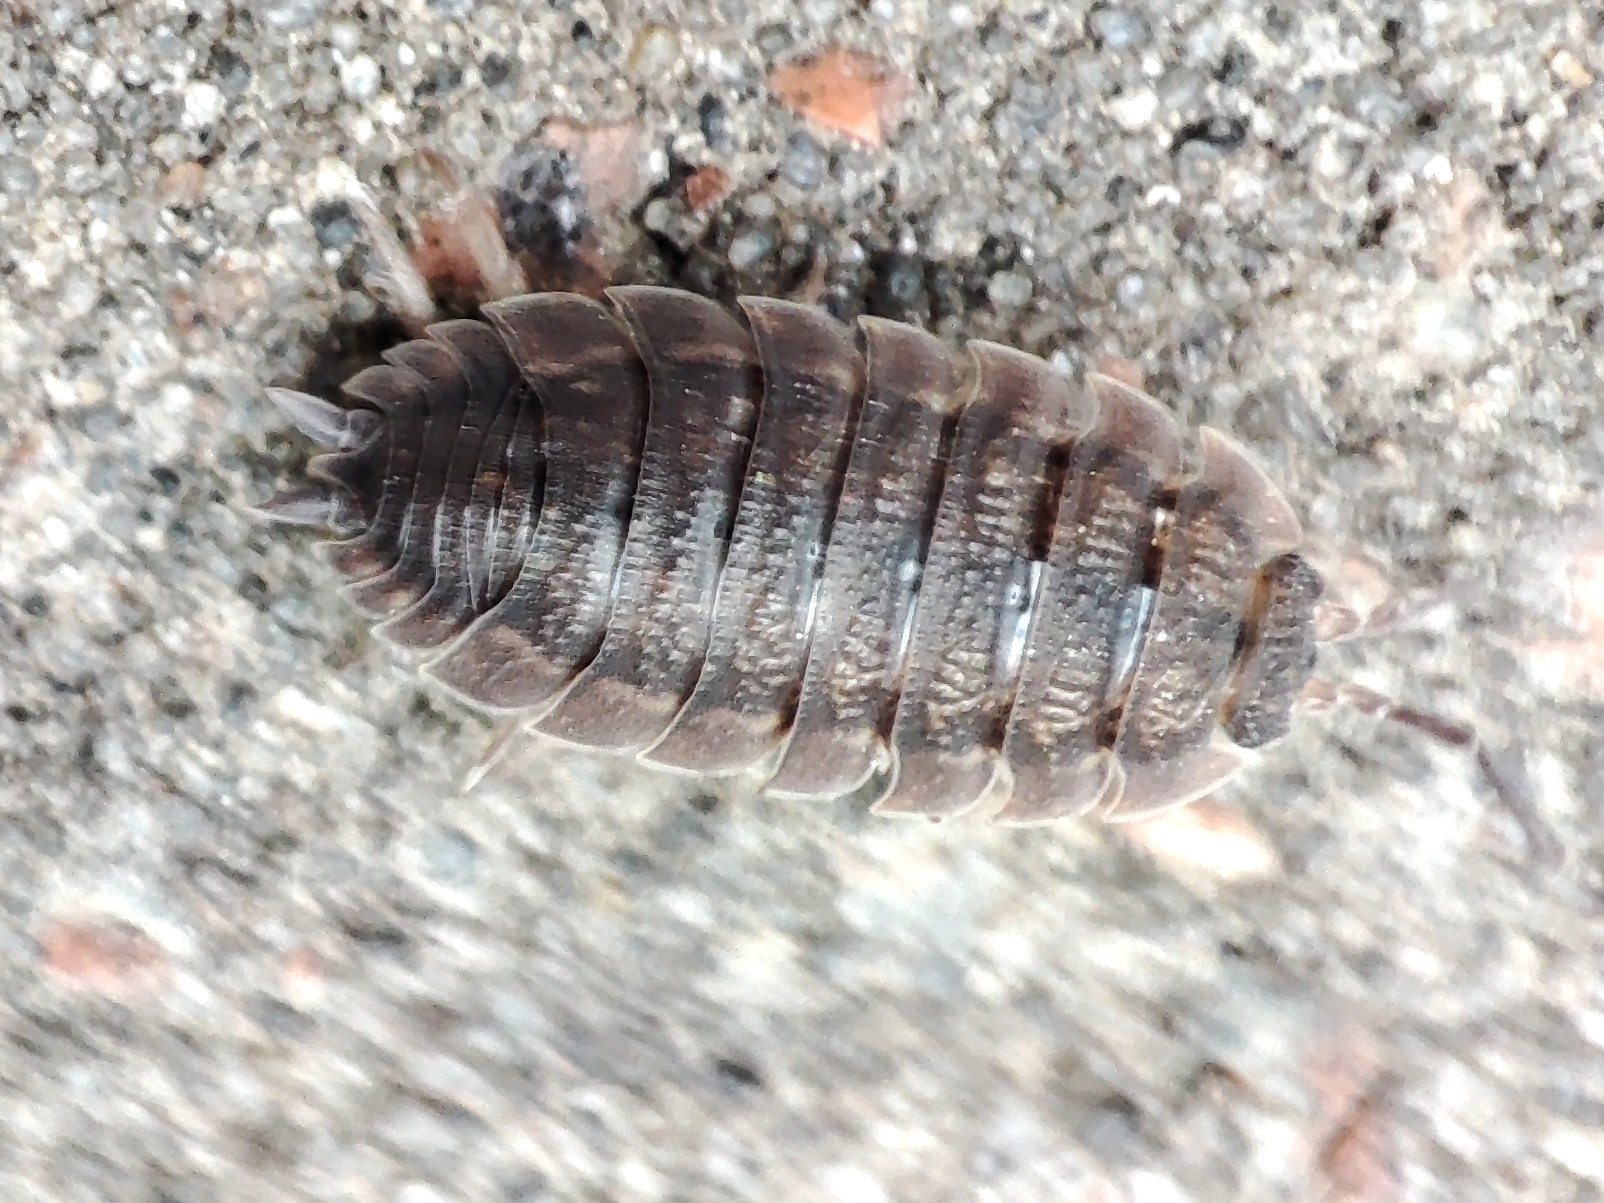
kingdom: Animalia
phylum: Arthropoda
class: Malacostraca
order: Isopoda
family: Porcellionidae
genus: Porcellio
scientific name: Porcellio scaber
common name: Common rough woodlouse
